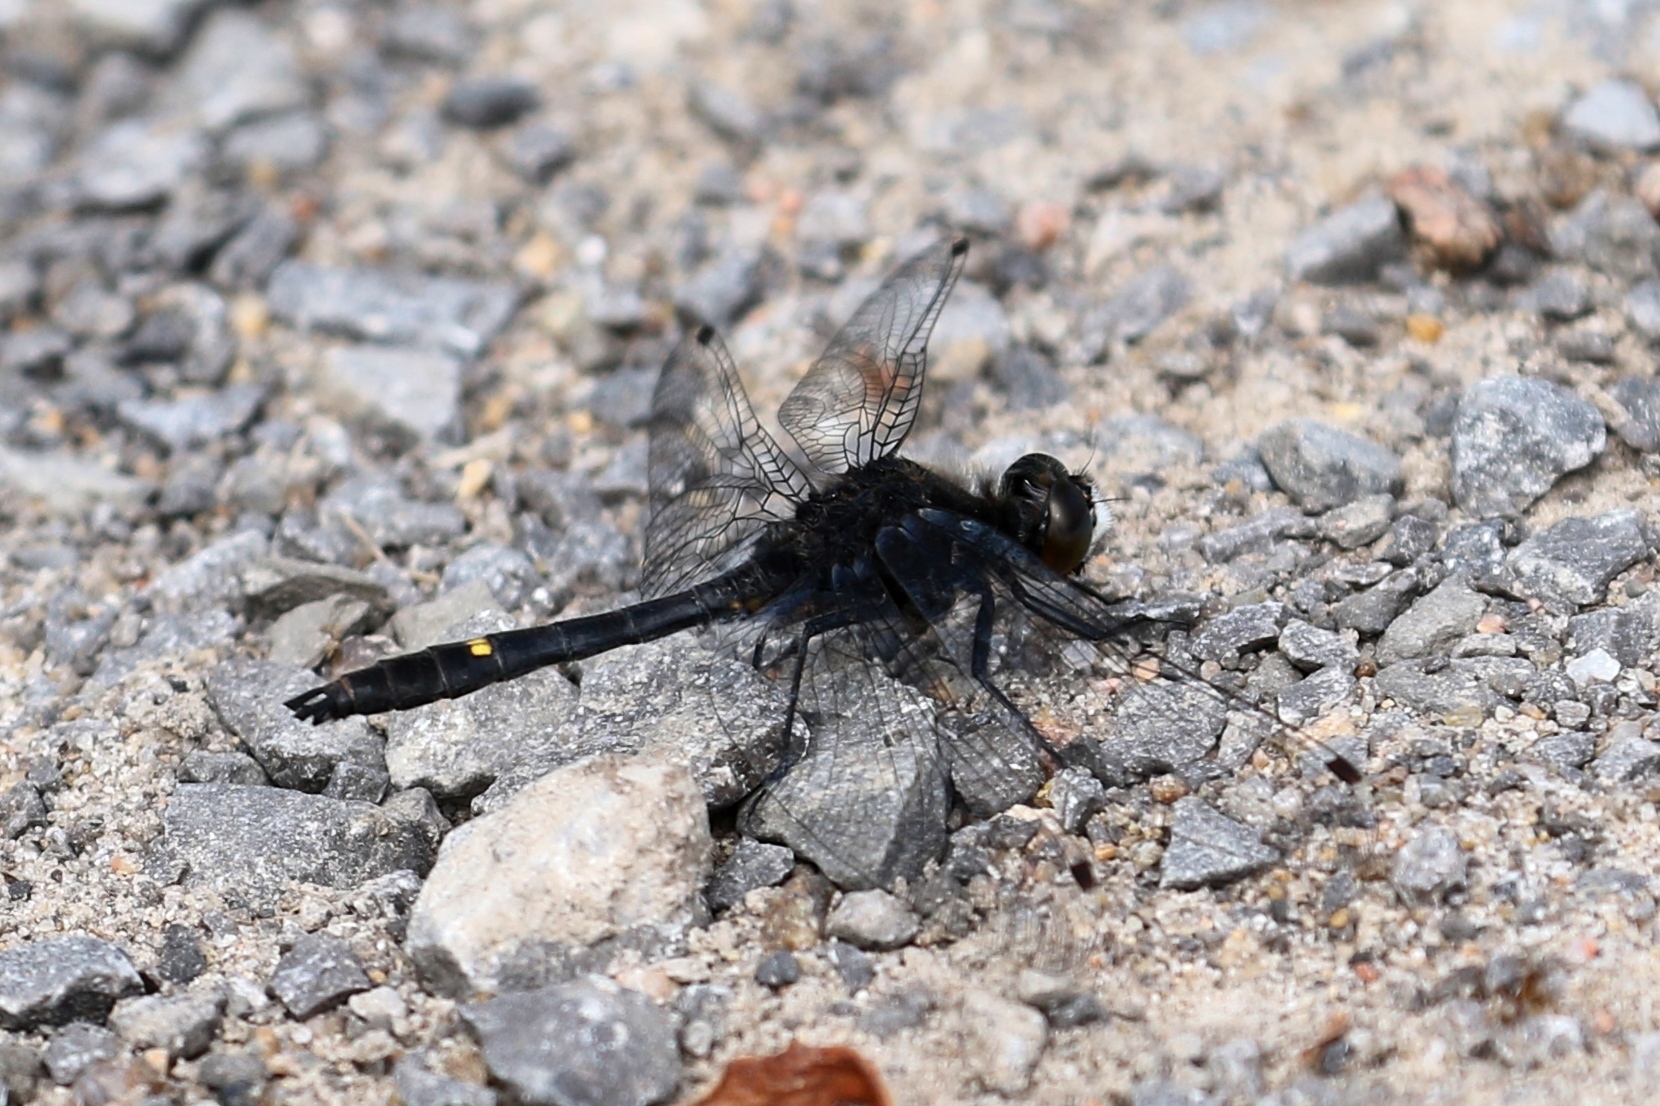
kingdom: Animalia
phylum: Arthropoda
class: Insecta
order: Odonata
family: Libellulidae
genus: Leucorrhinia
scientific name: Leucorrhinia intacta
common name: Dot-tailed whiteface
